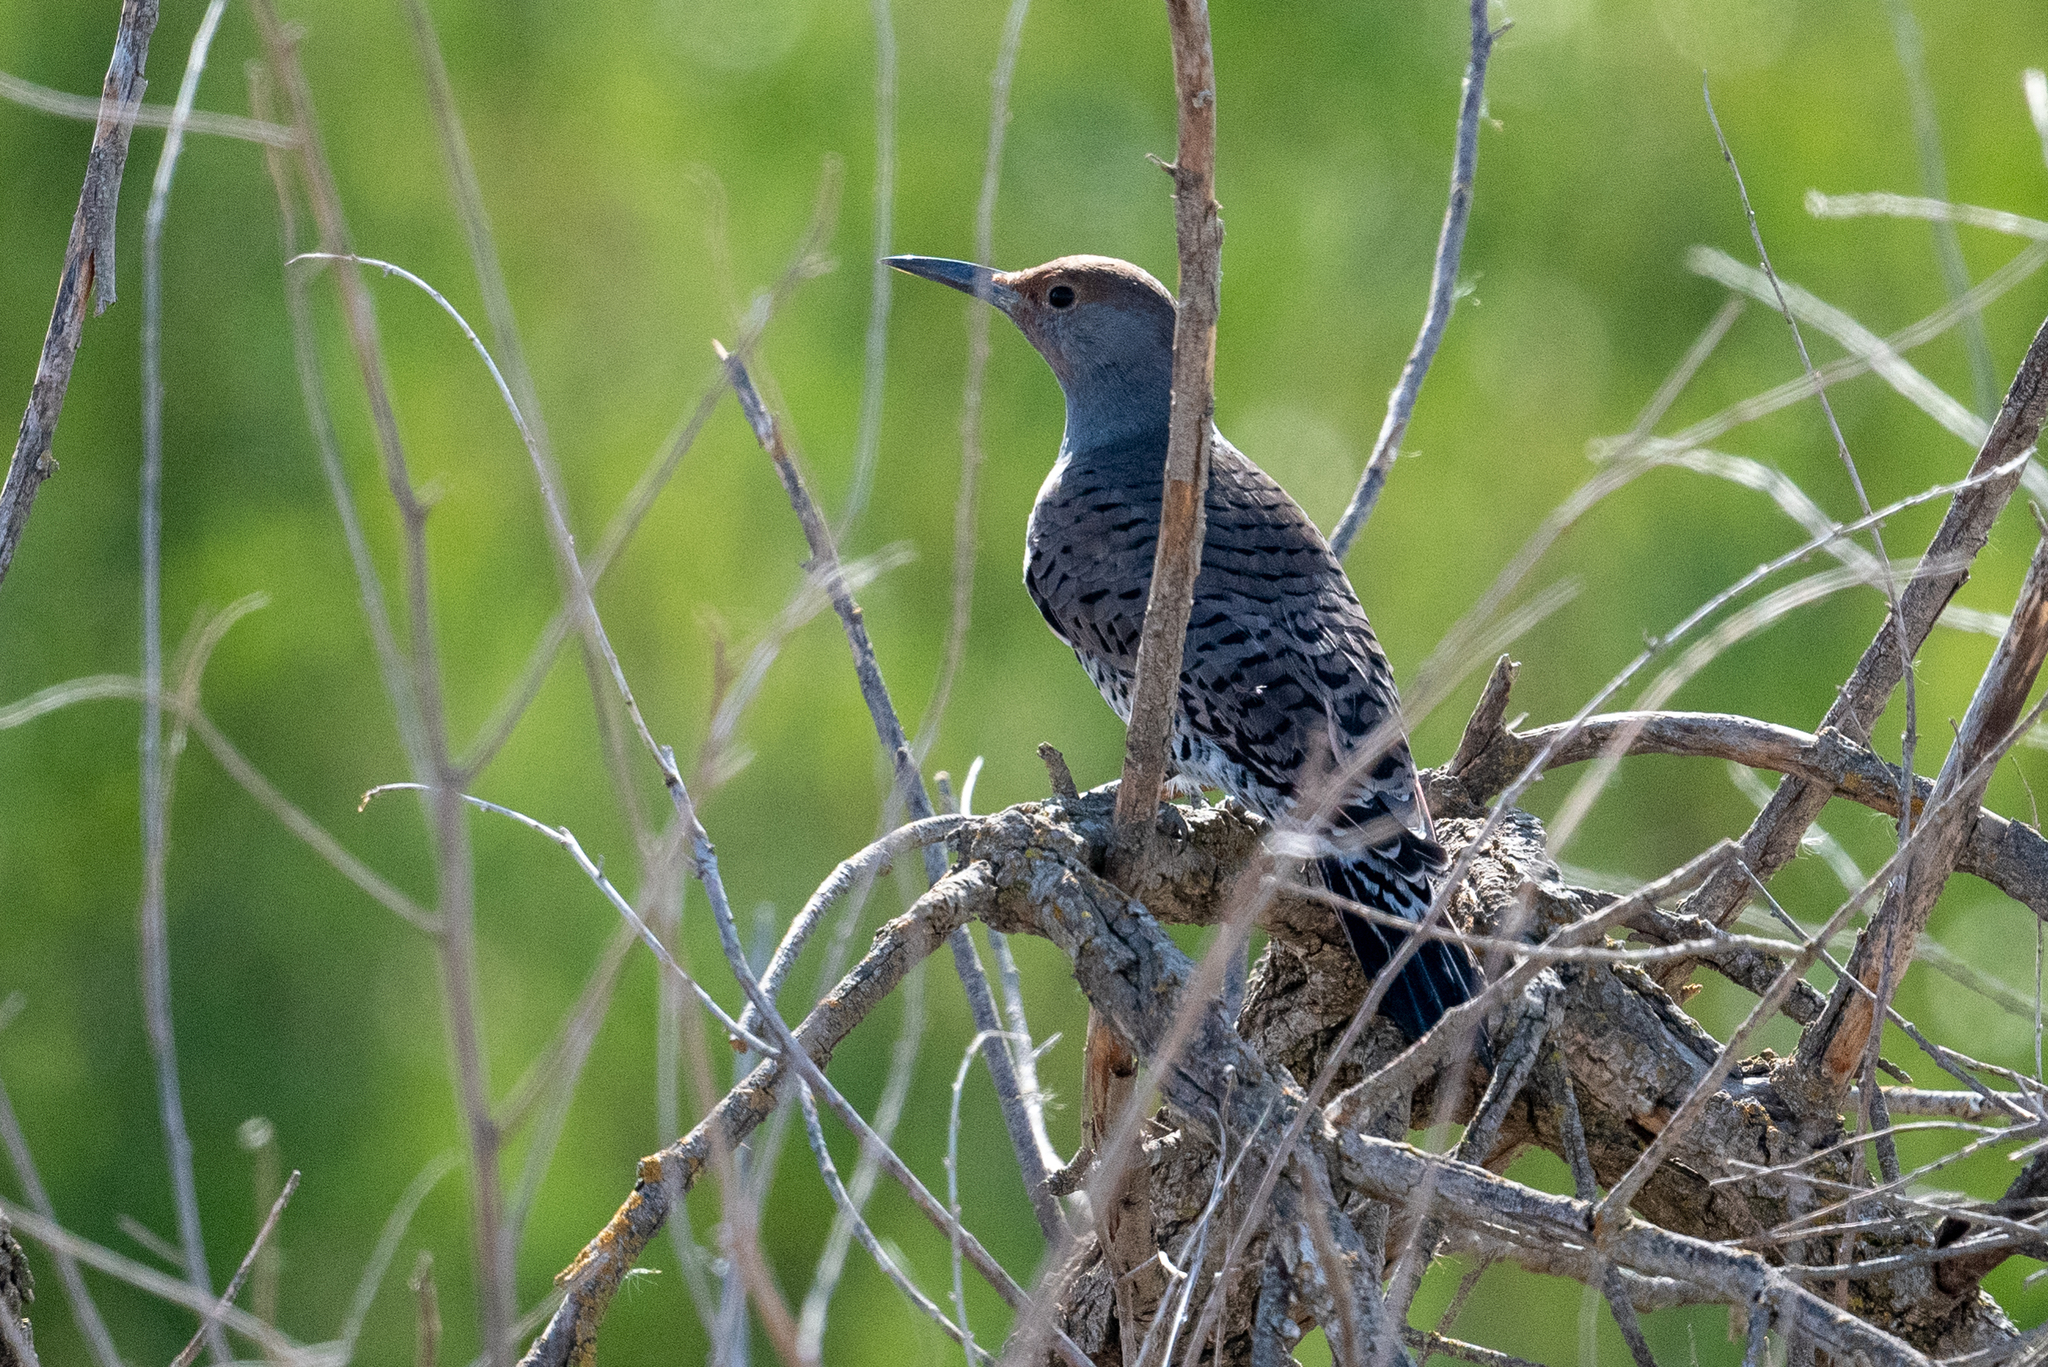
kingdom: Animalia
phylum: Chordata
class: Aves
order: Piciformes
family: Picidae
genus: Colaptes
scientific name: Colaptes auratus
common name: Northern flicker
